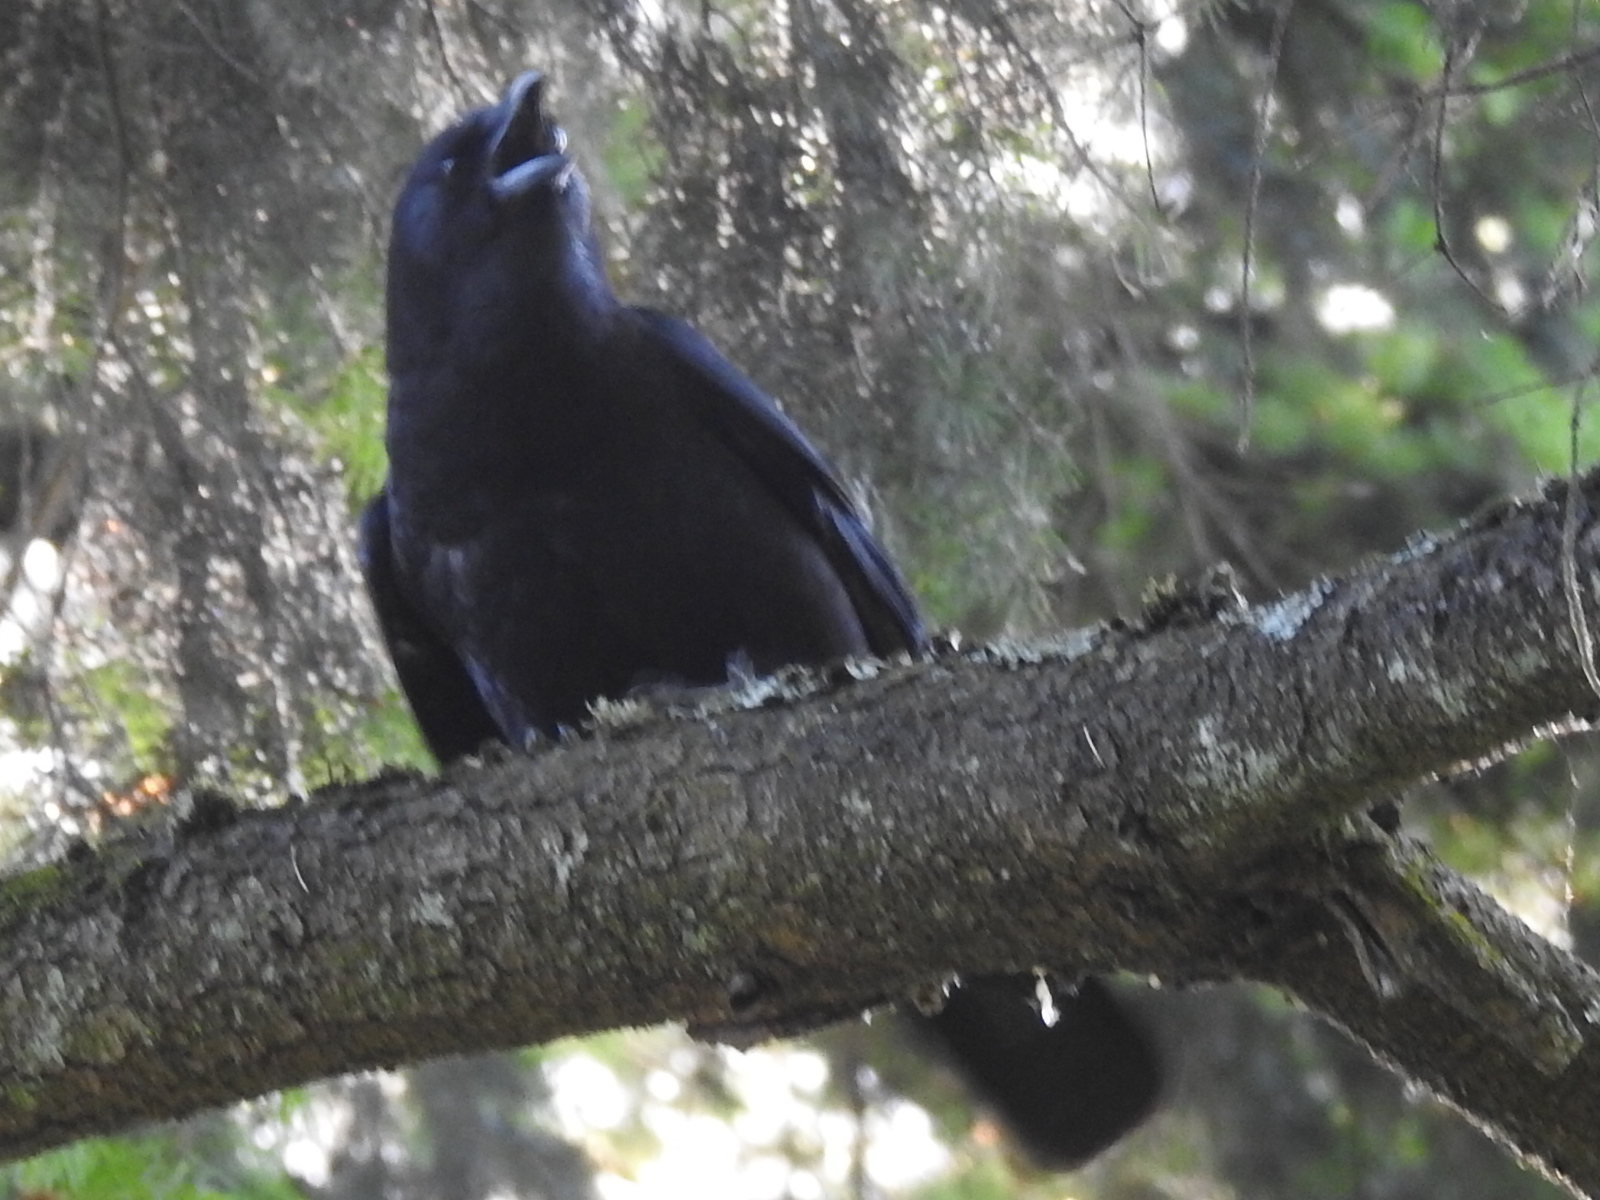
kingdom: Animalia
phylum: Chordata
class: Aves
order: Passeriformes
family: Corvidae
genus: Corvus
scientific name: Corvus brachyrhynchos
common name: American crow
